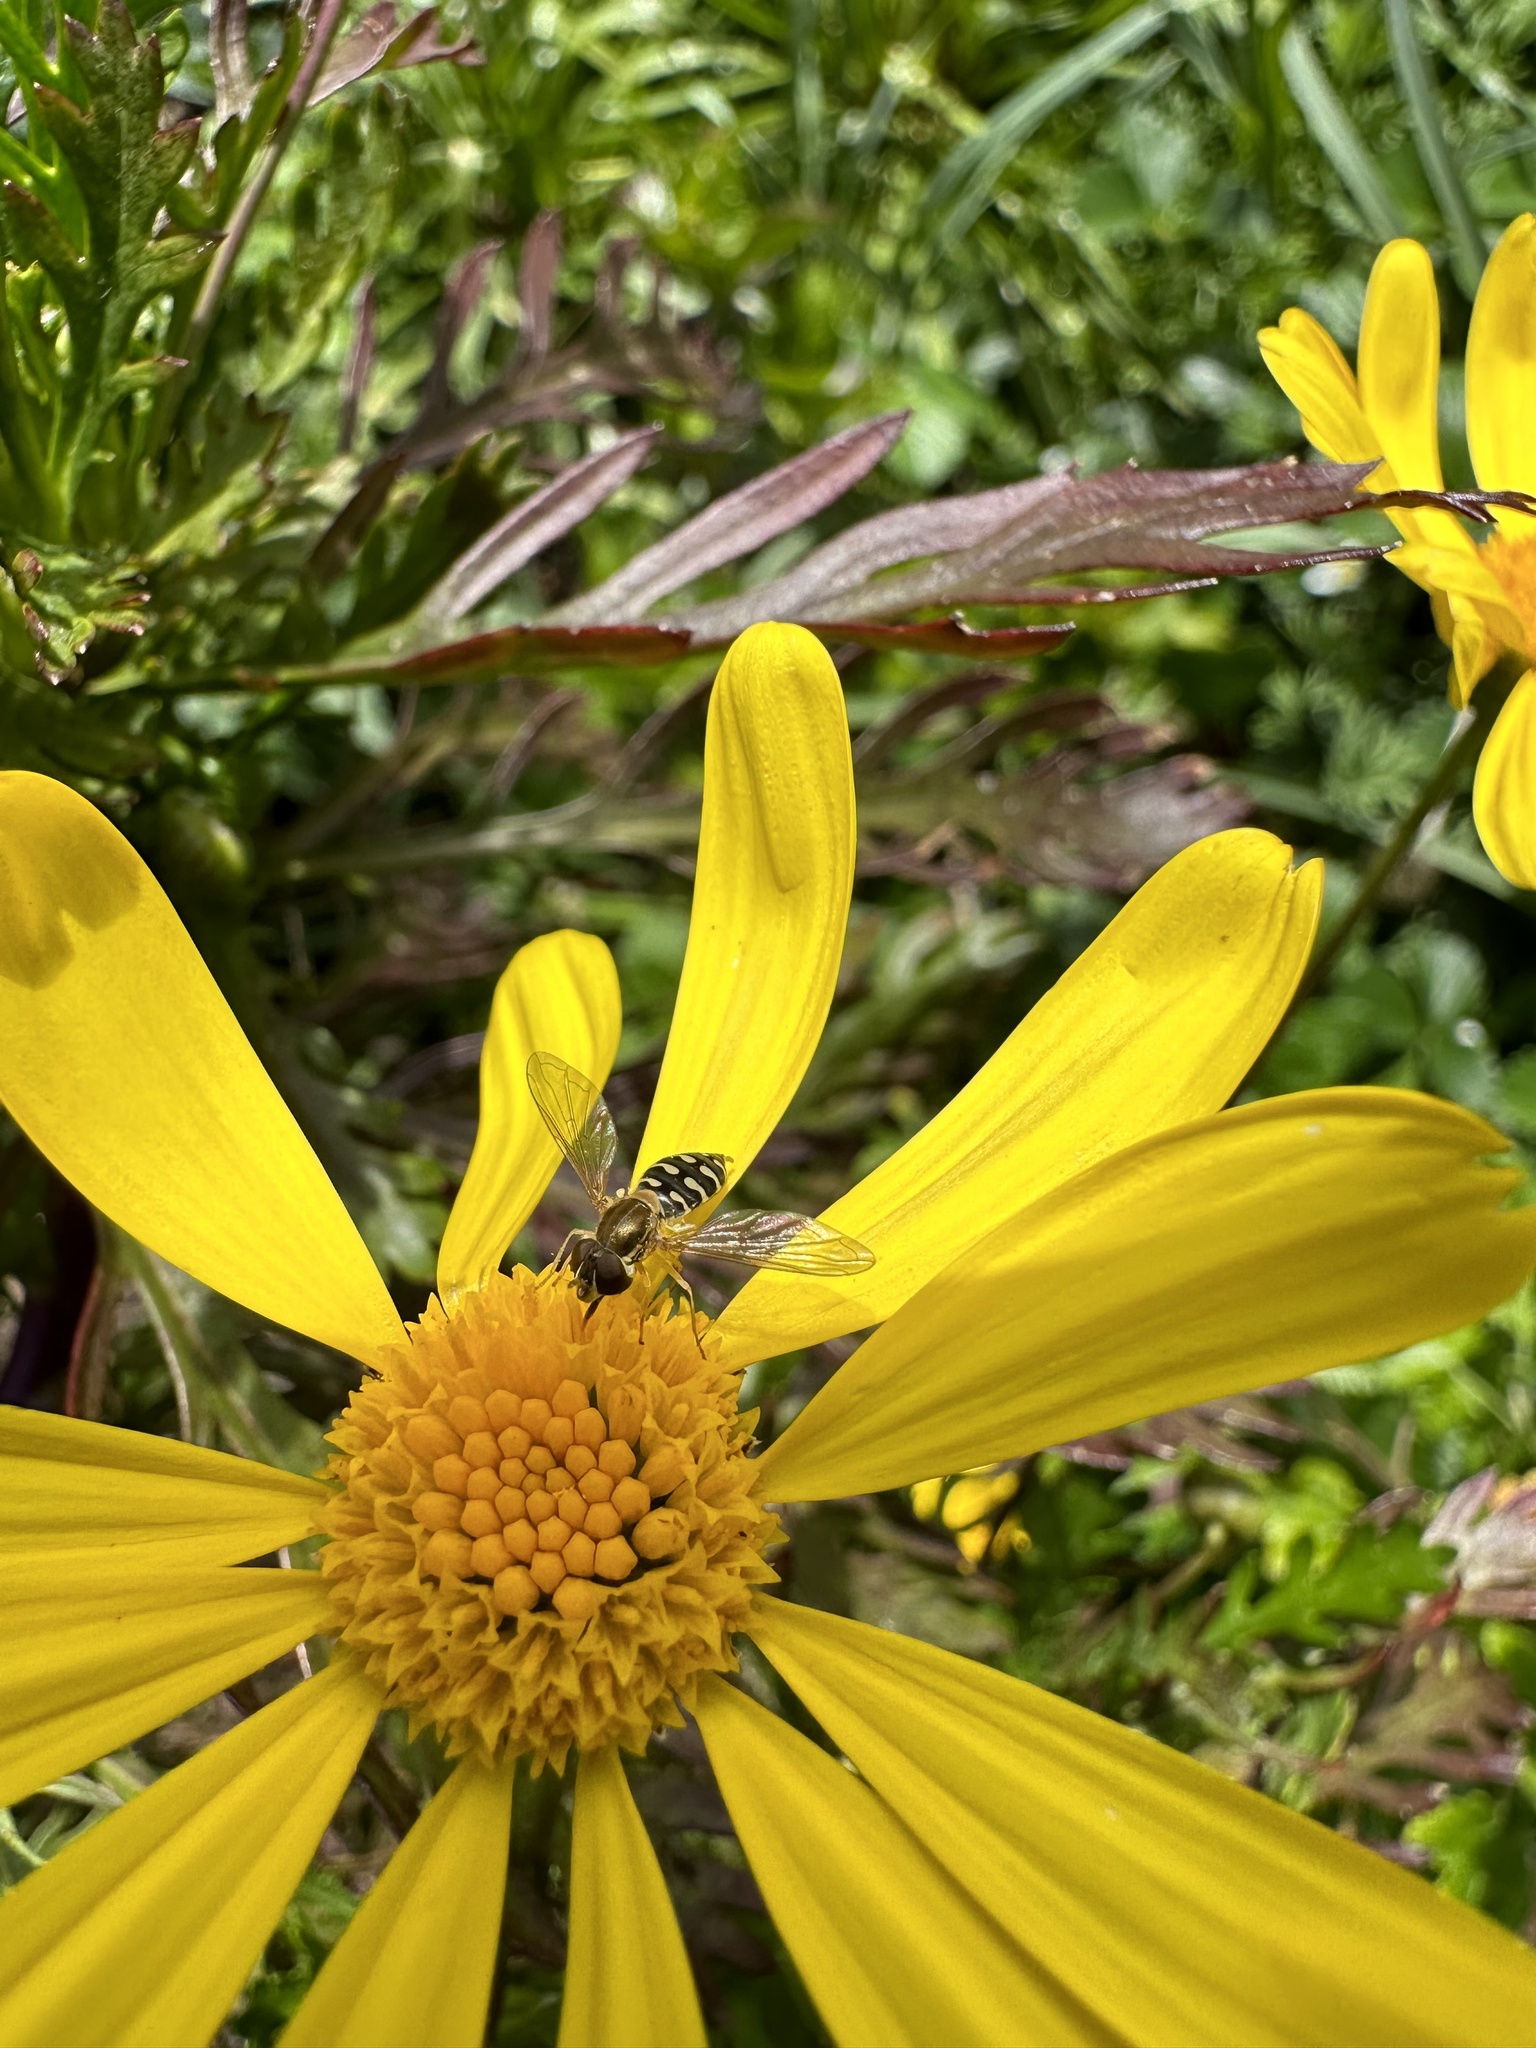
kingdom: Animalia
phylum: Arthropoda
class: Insecta
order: Diptera
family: Syrphidae
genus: Toxomerus
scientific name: Toxomerus vertebratus
